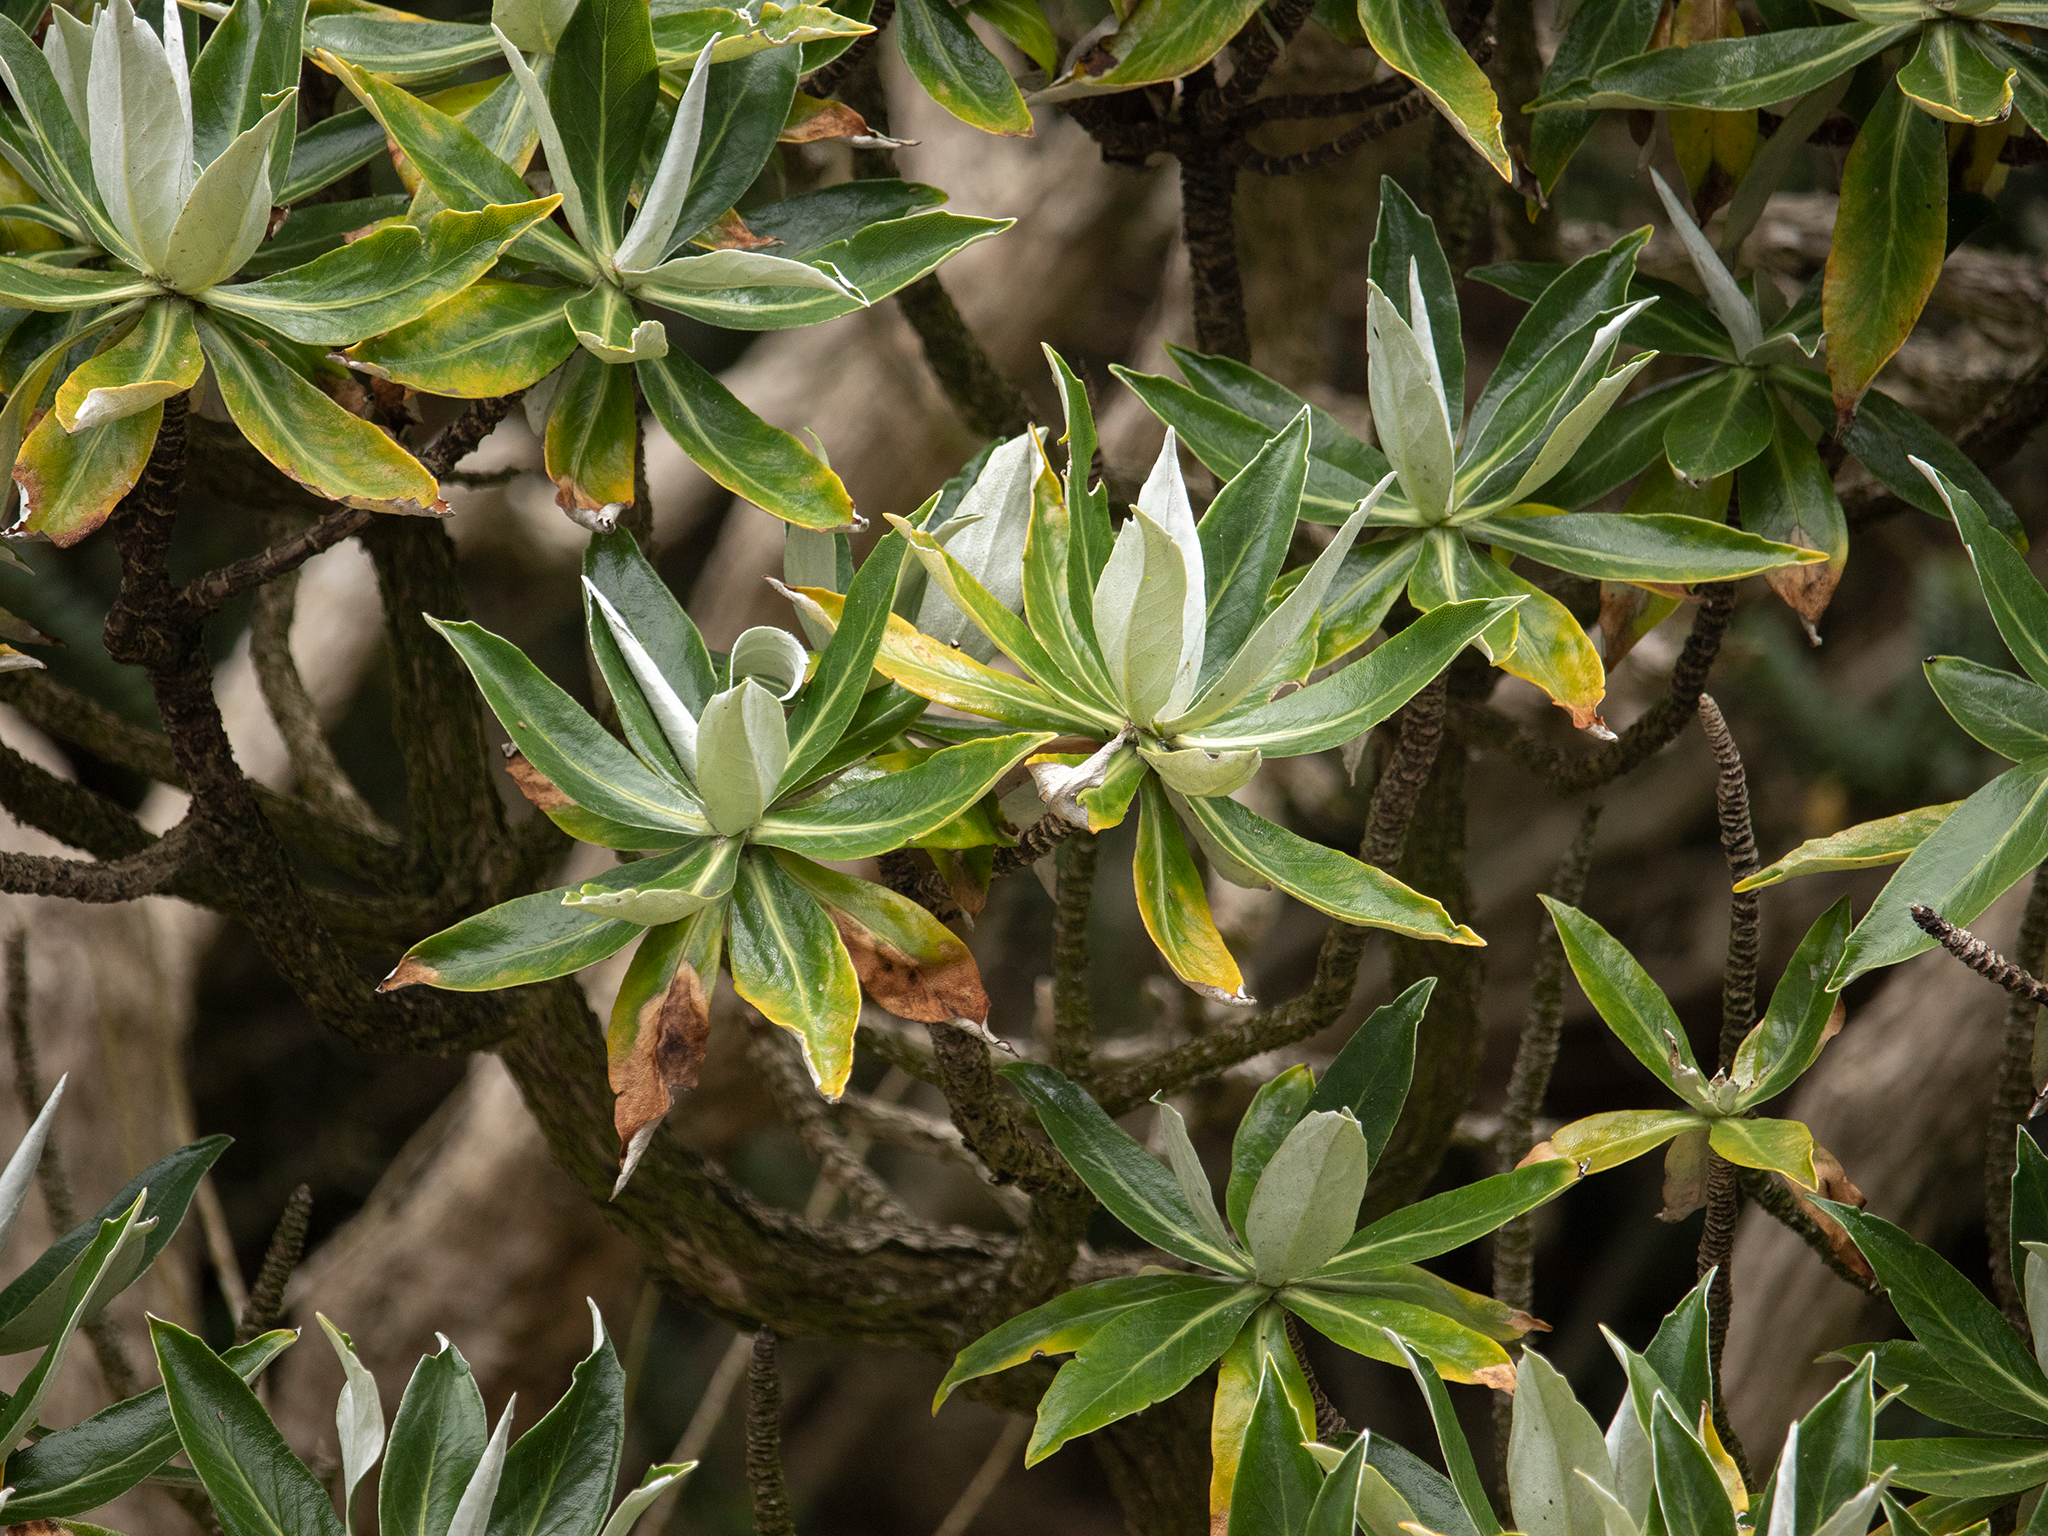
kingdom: Plantae
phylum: Tracheophyta
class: Magnoliopsida
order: Asterales
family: Asteraceae
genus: Brachyglottis
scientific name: Brachyglottis stewartiae
